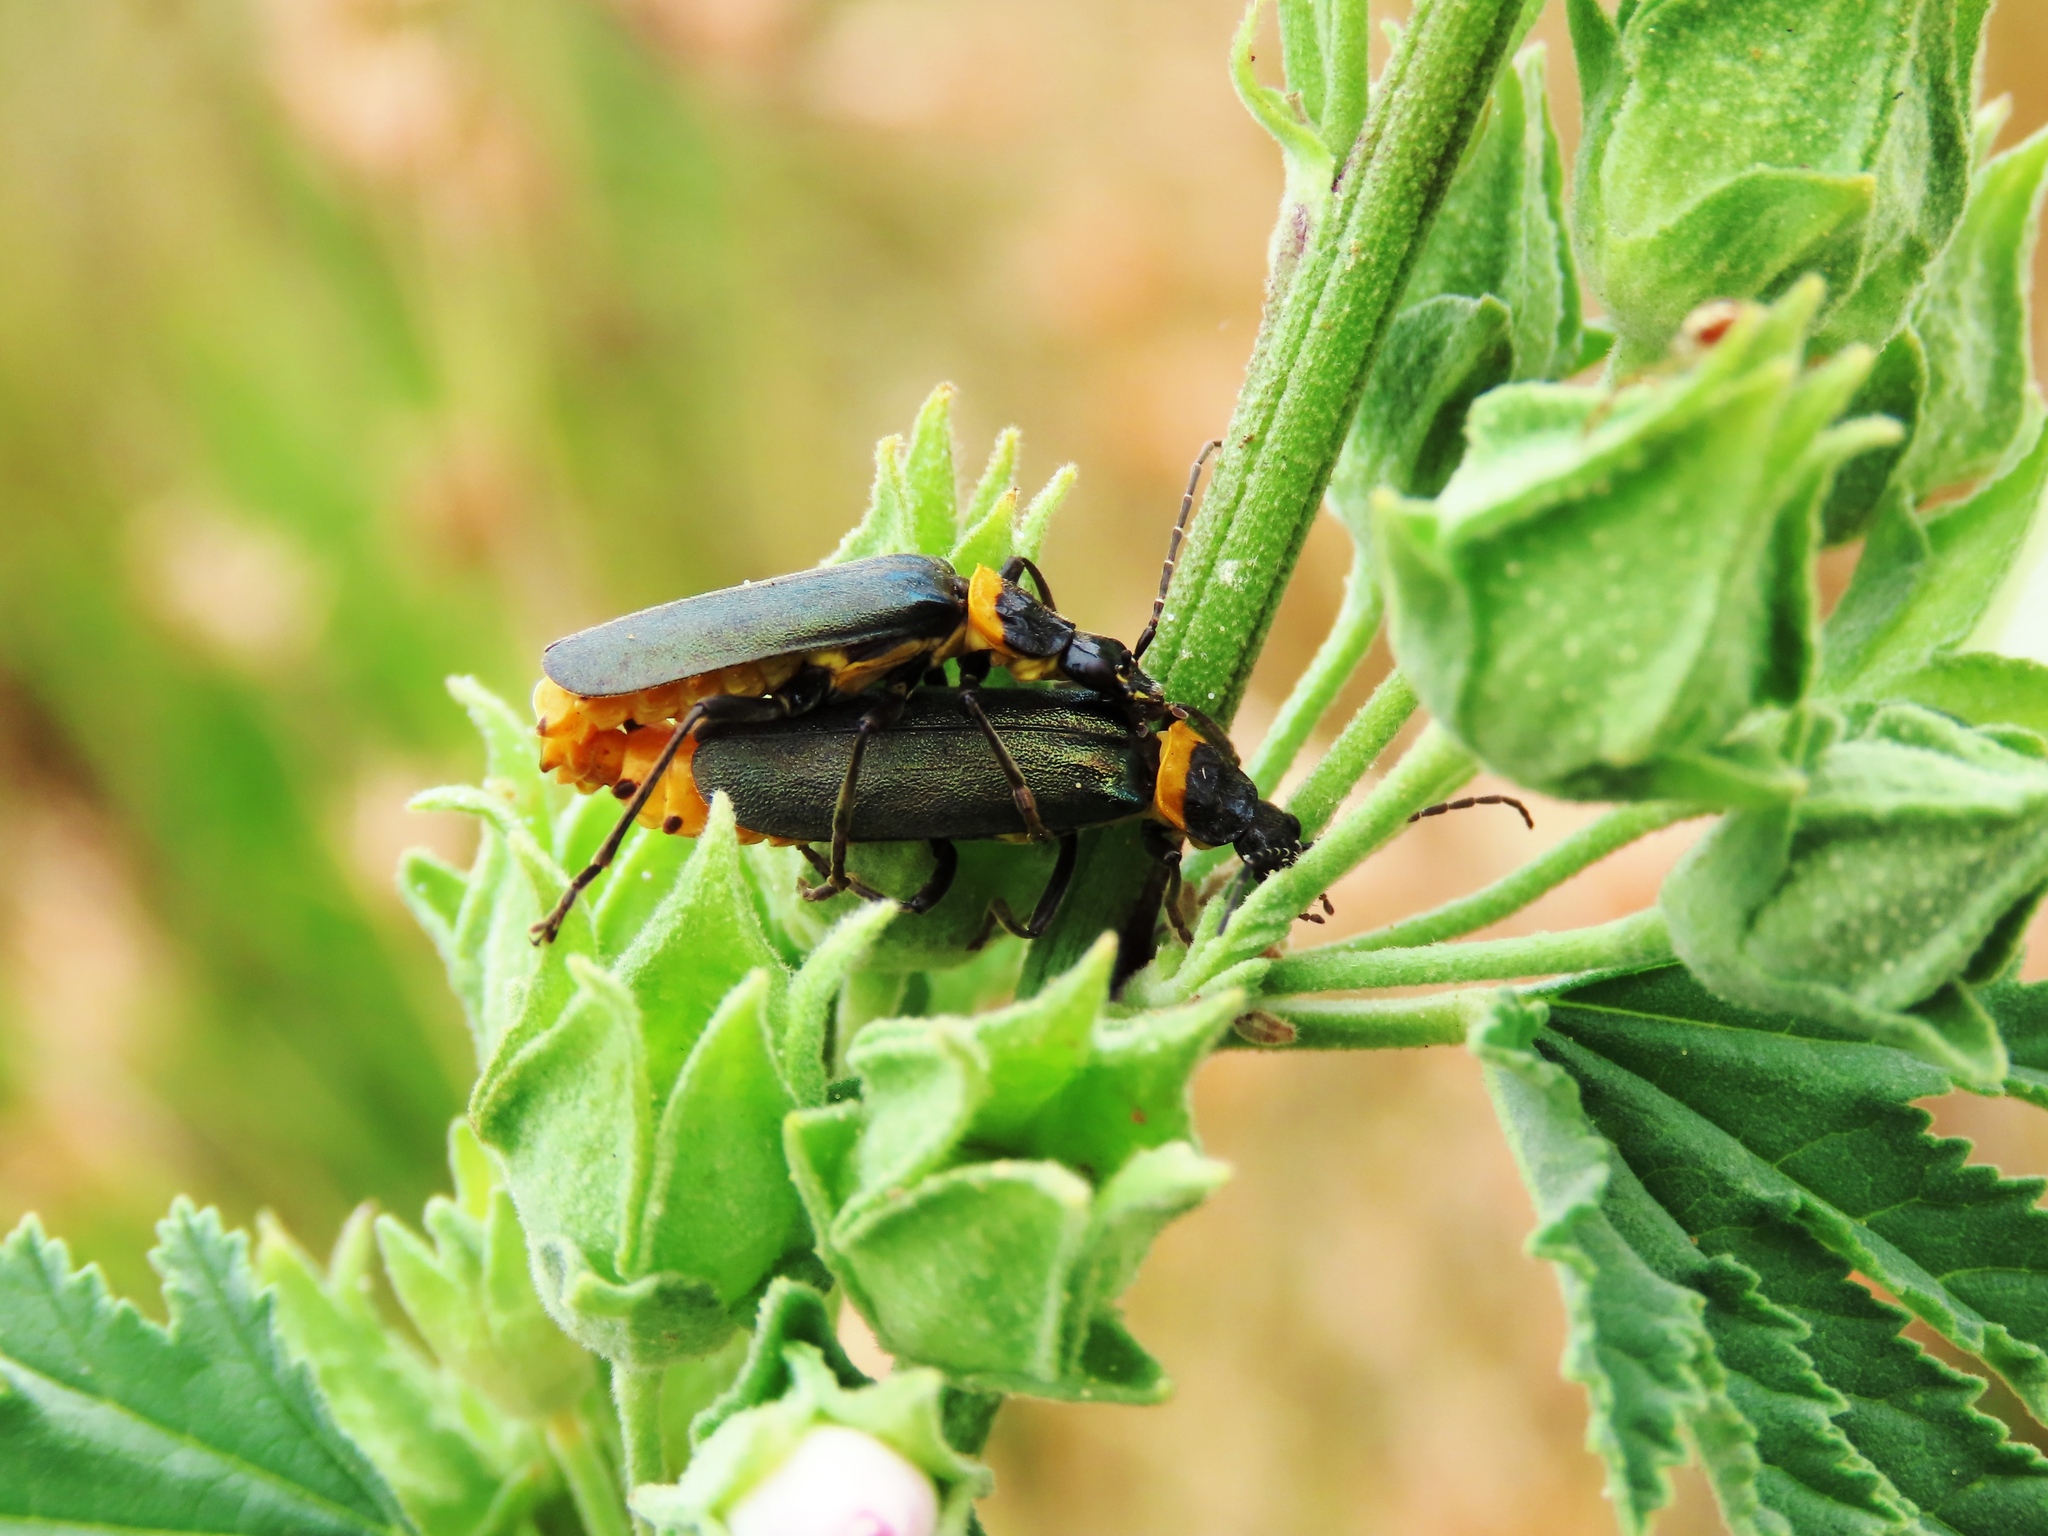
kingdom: Animalia
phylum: Arthropoda
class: Insecta
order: Coleoptera
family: Cantharidae
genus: Chauliognathus
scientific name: Chauliognathus
